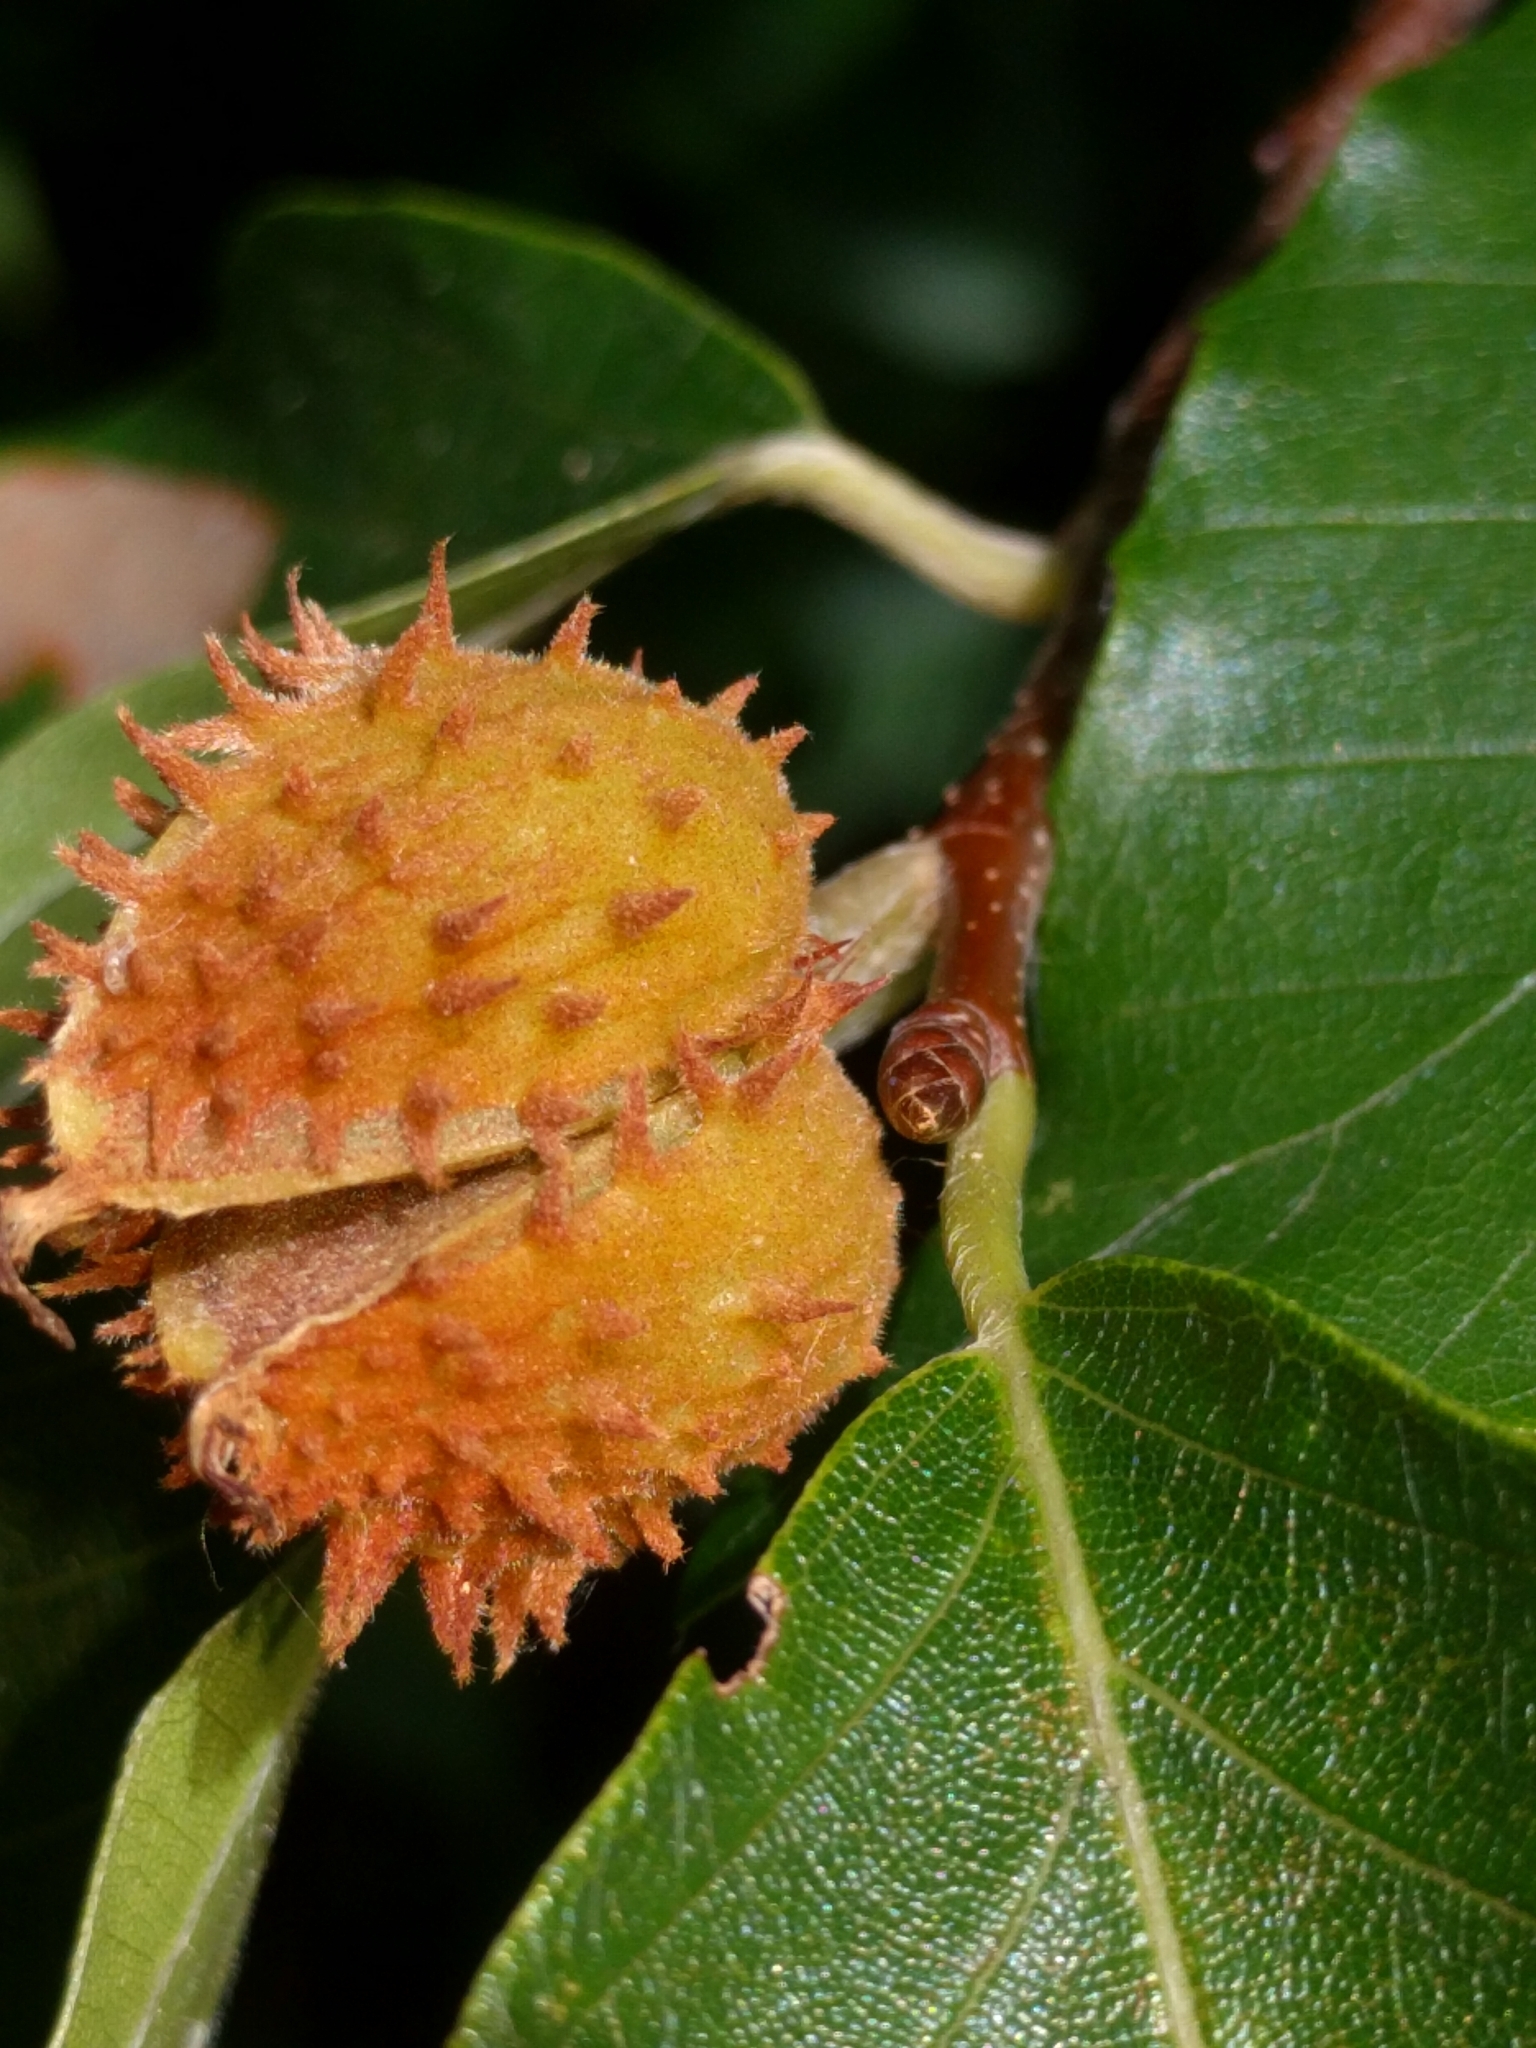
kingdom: Plantae
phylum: Tracheophyta
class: Magnoliopsida
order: Fagales
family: Fagaceae
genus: Fagus
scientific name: Fagus grandifolia
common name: American beech
